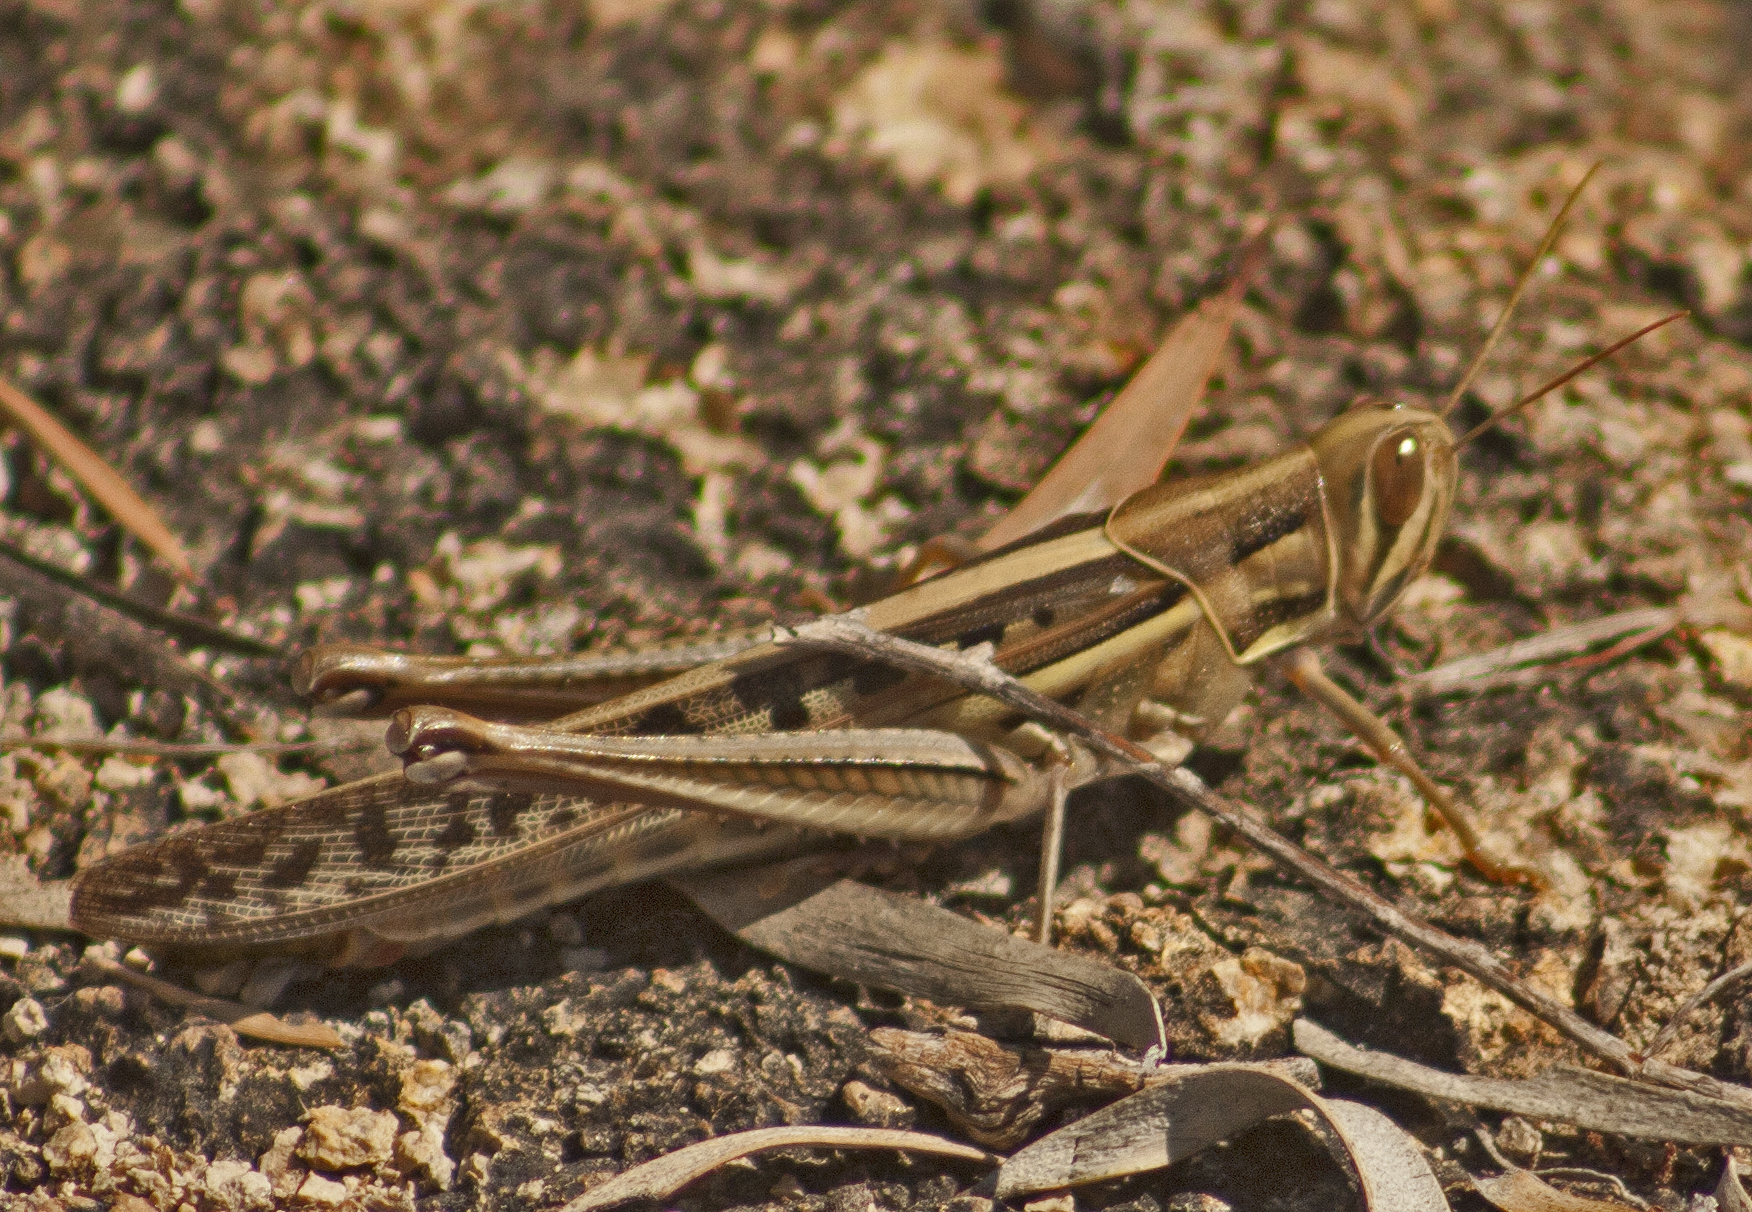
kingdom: Animalia
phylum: Arthropoda
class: Insecta
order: Orthoptera
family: Acrididae
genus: Austracris
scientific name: Austracris guttulosa
